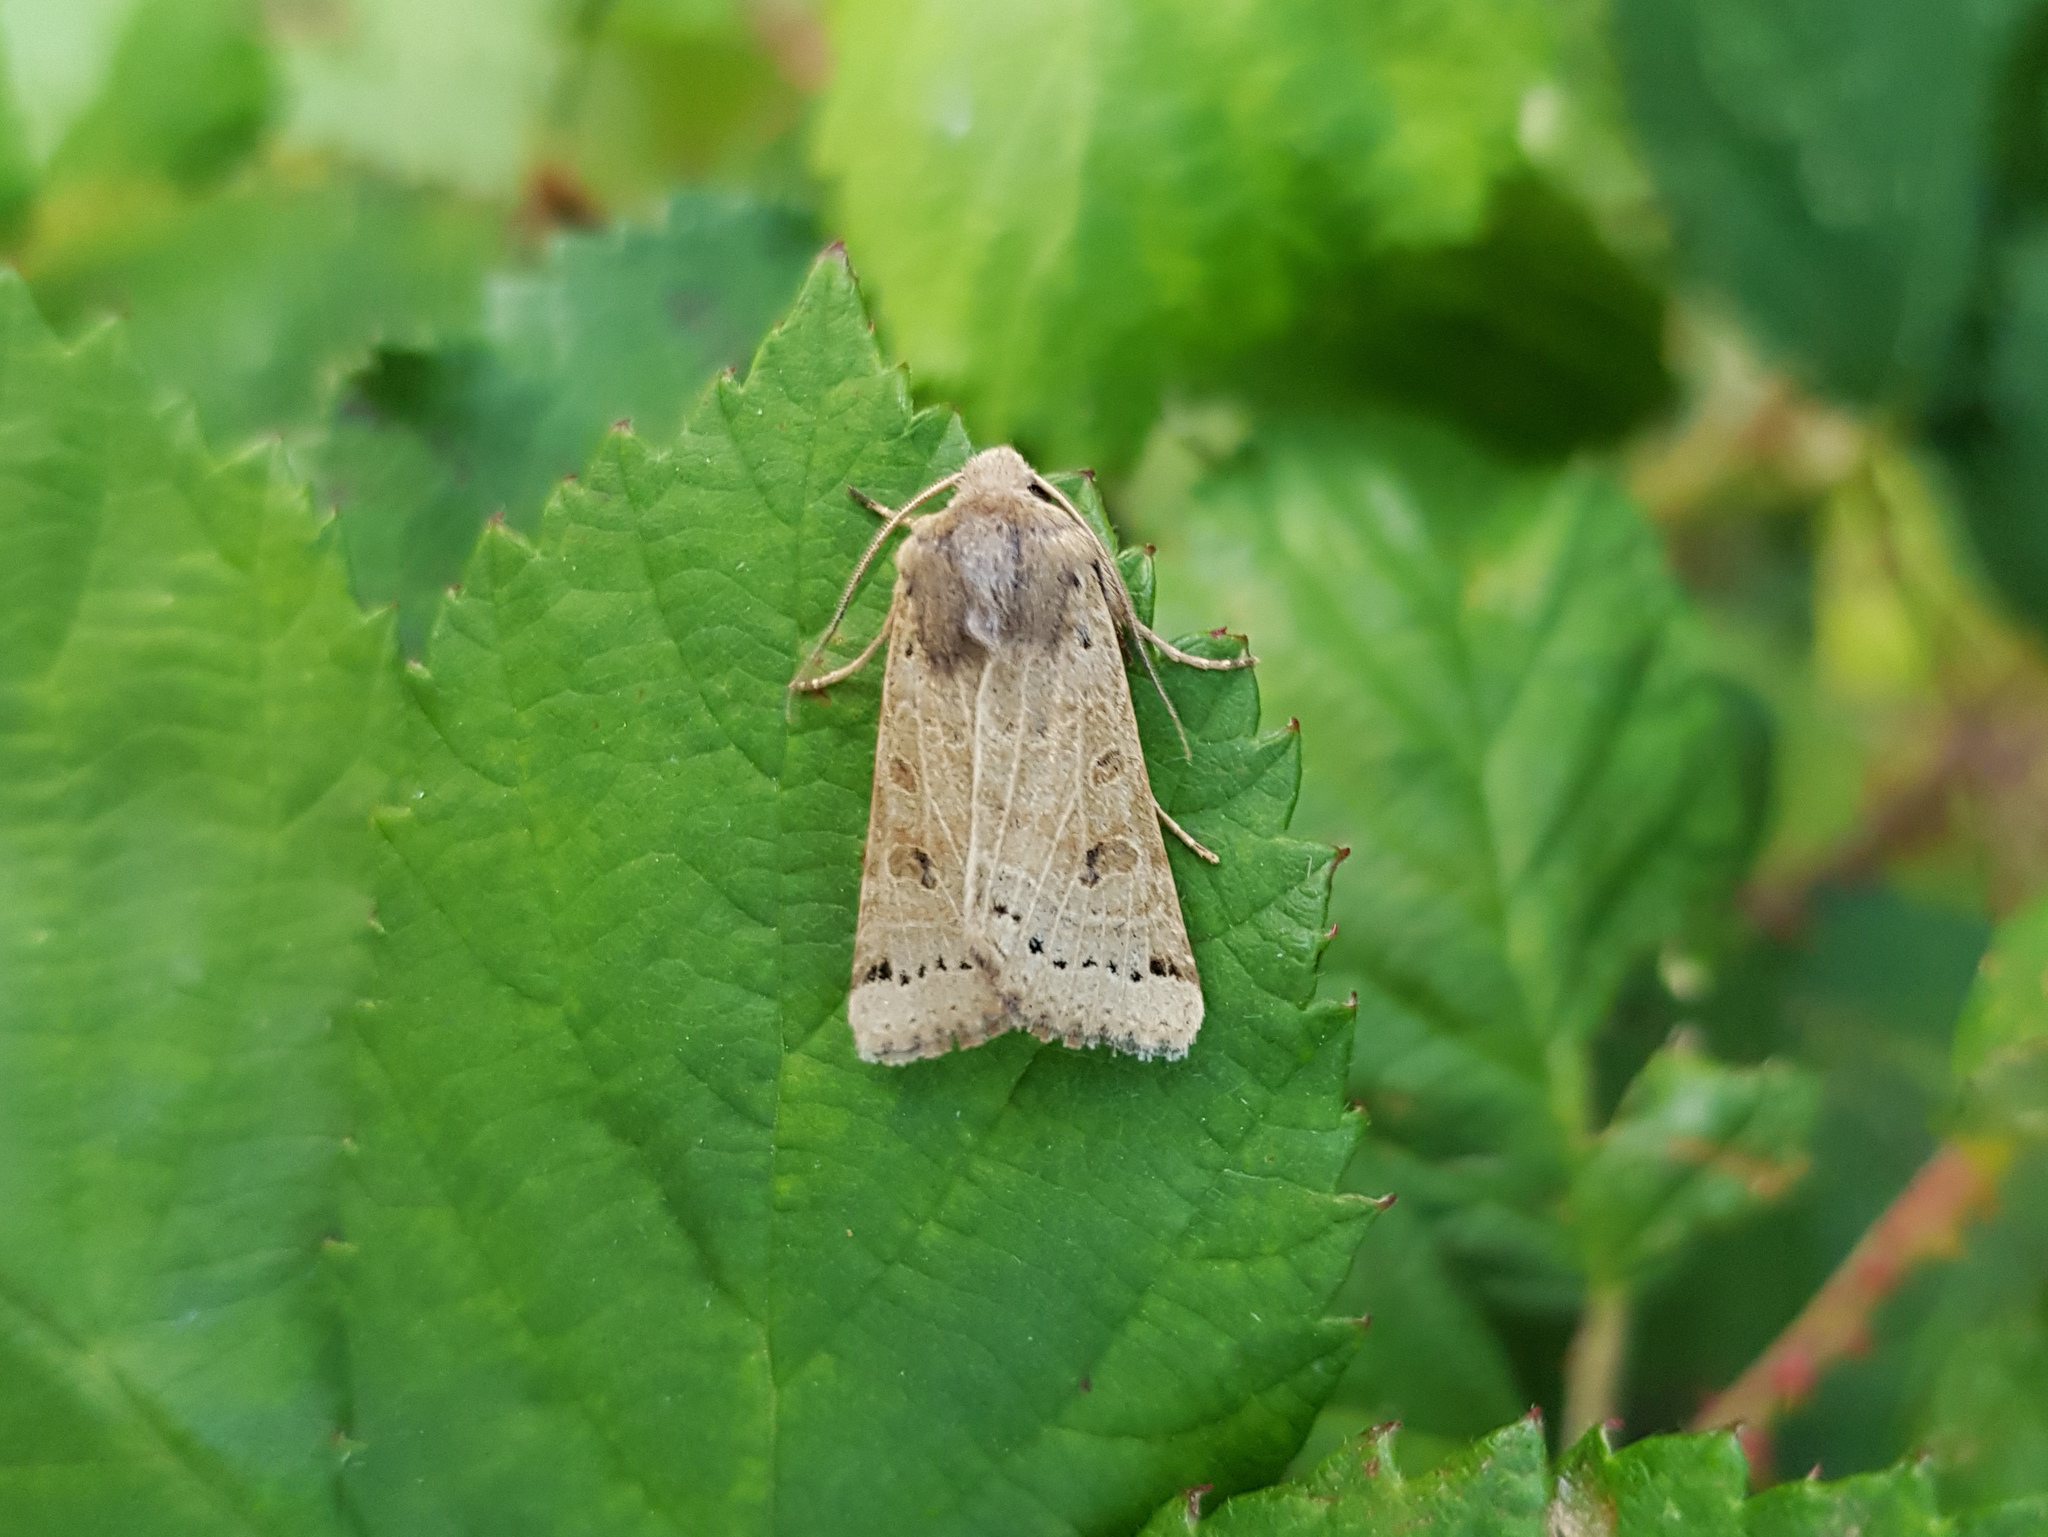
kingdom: Animalia
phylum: Arthropoda
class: Insecta
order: Lepidoptera
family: Noctuidae
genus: Agrochola
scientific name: Agrochola lunosa
